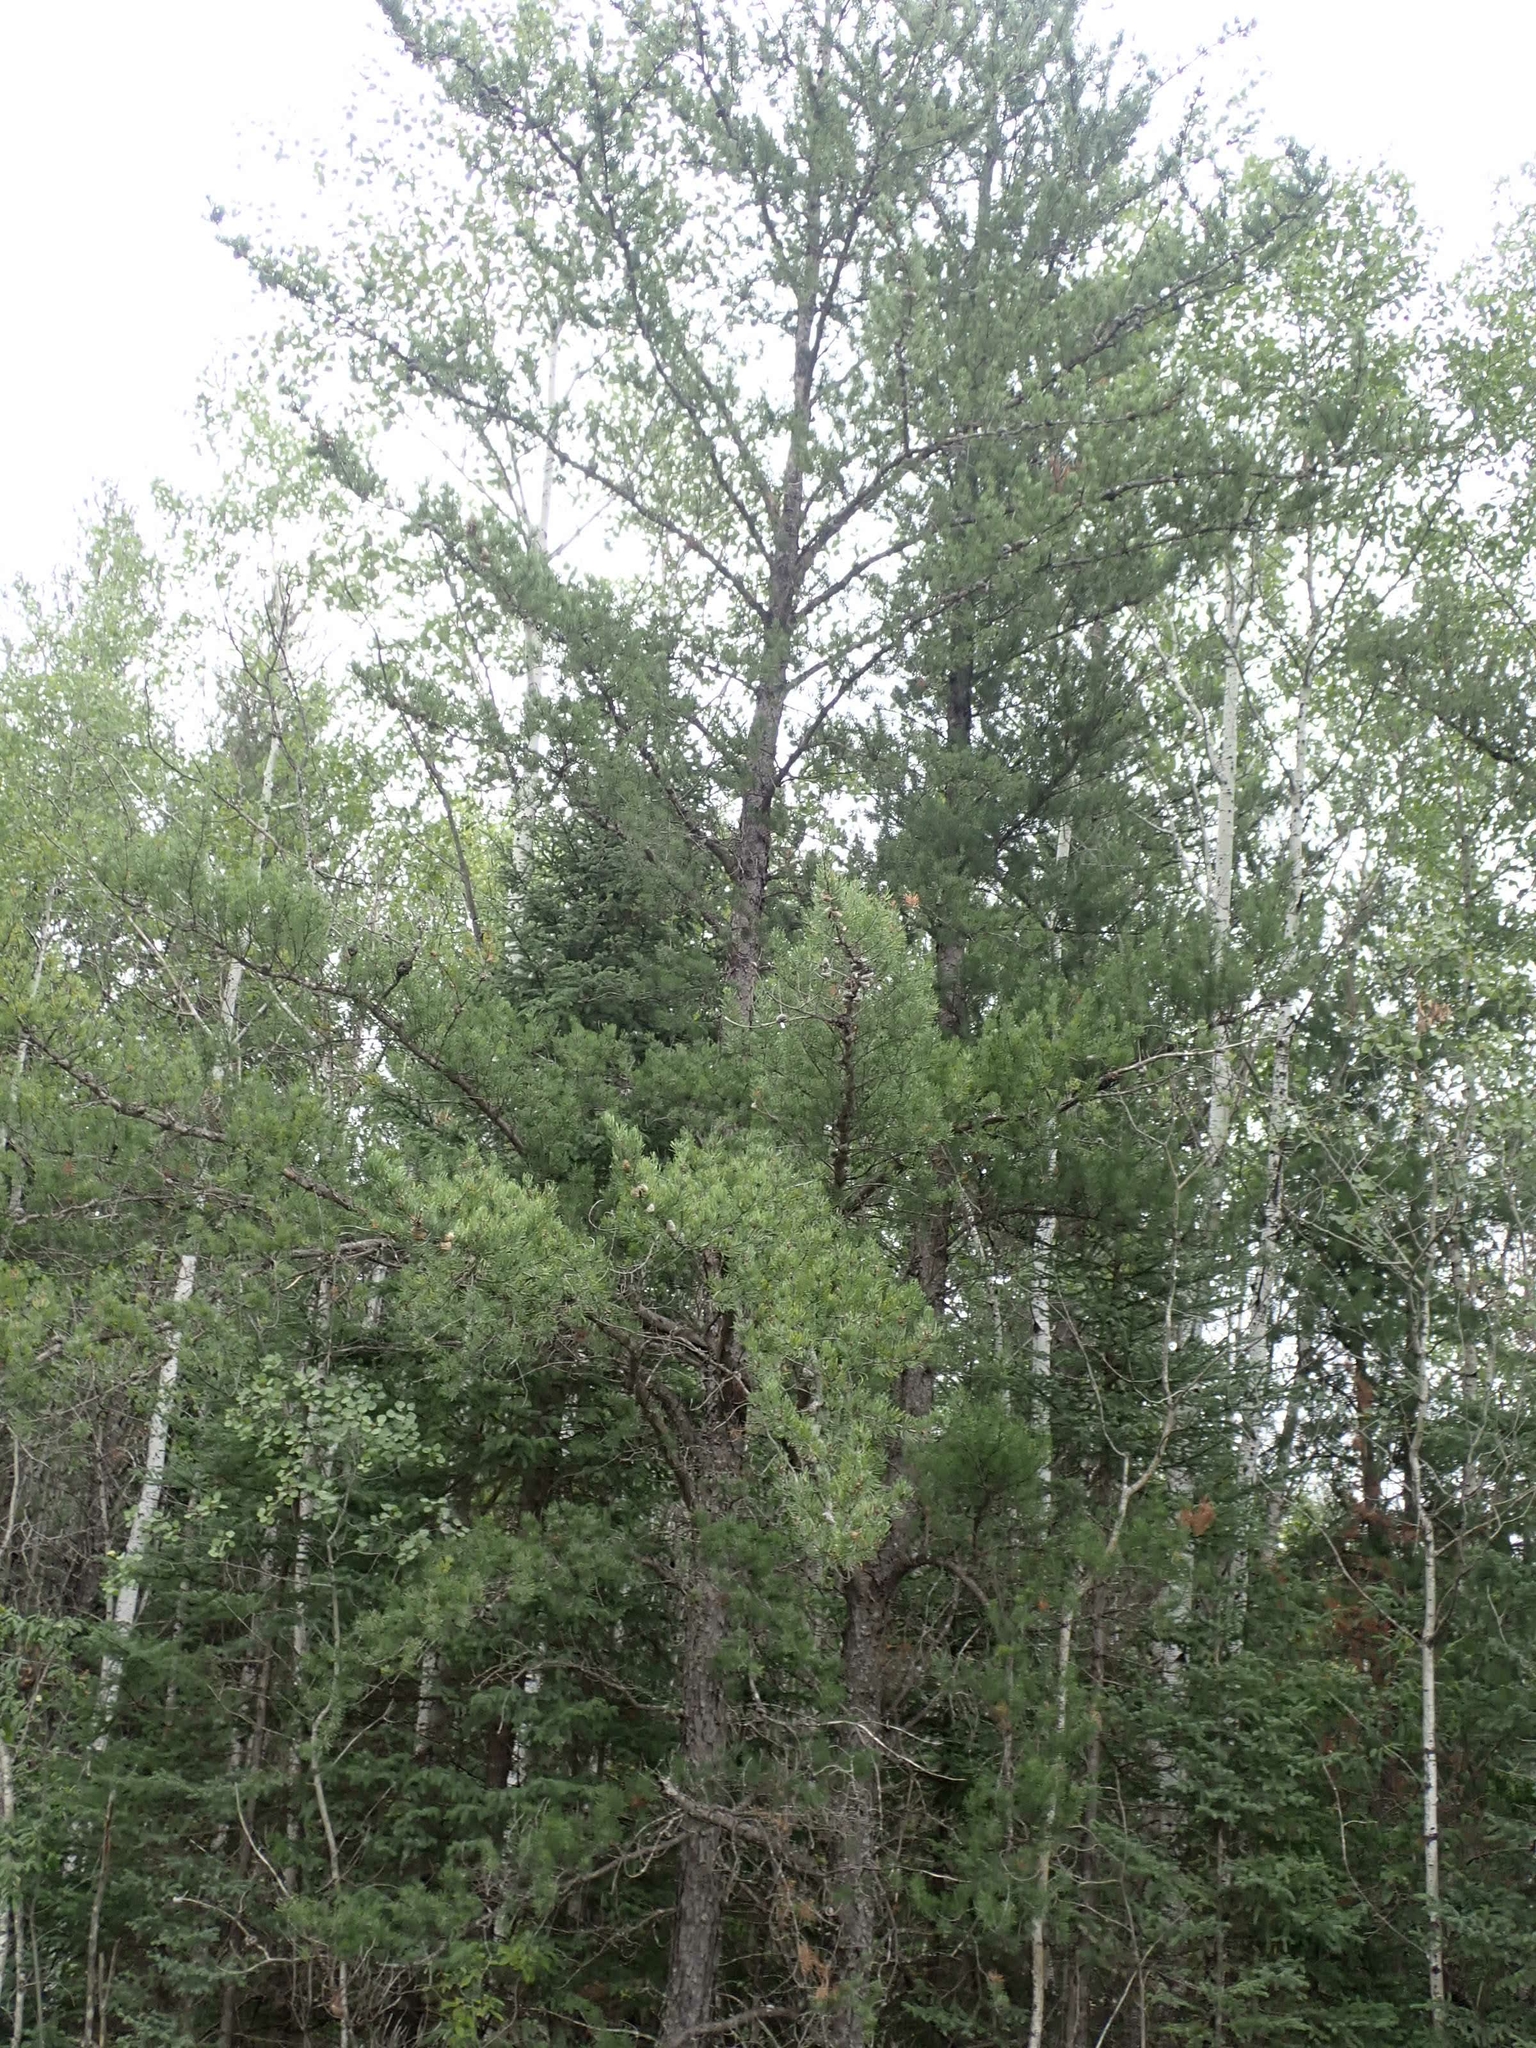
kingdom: Plantae
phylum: Tracheophyta
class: Pinopsida
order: Pinales
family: Pinaceae
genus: Pinus
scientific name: Pinus banksiana
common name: Jack pine
